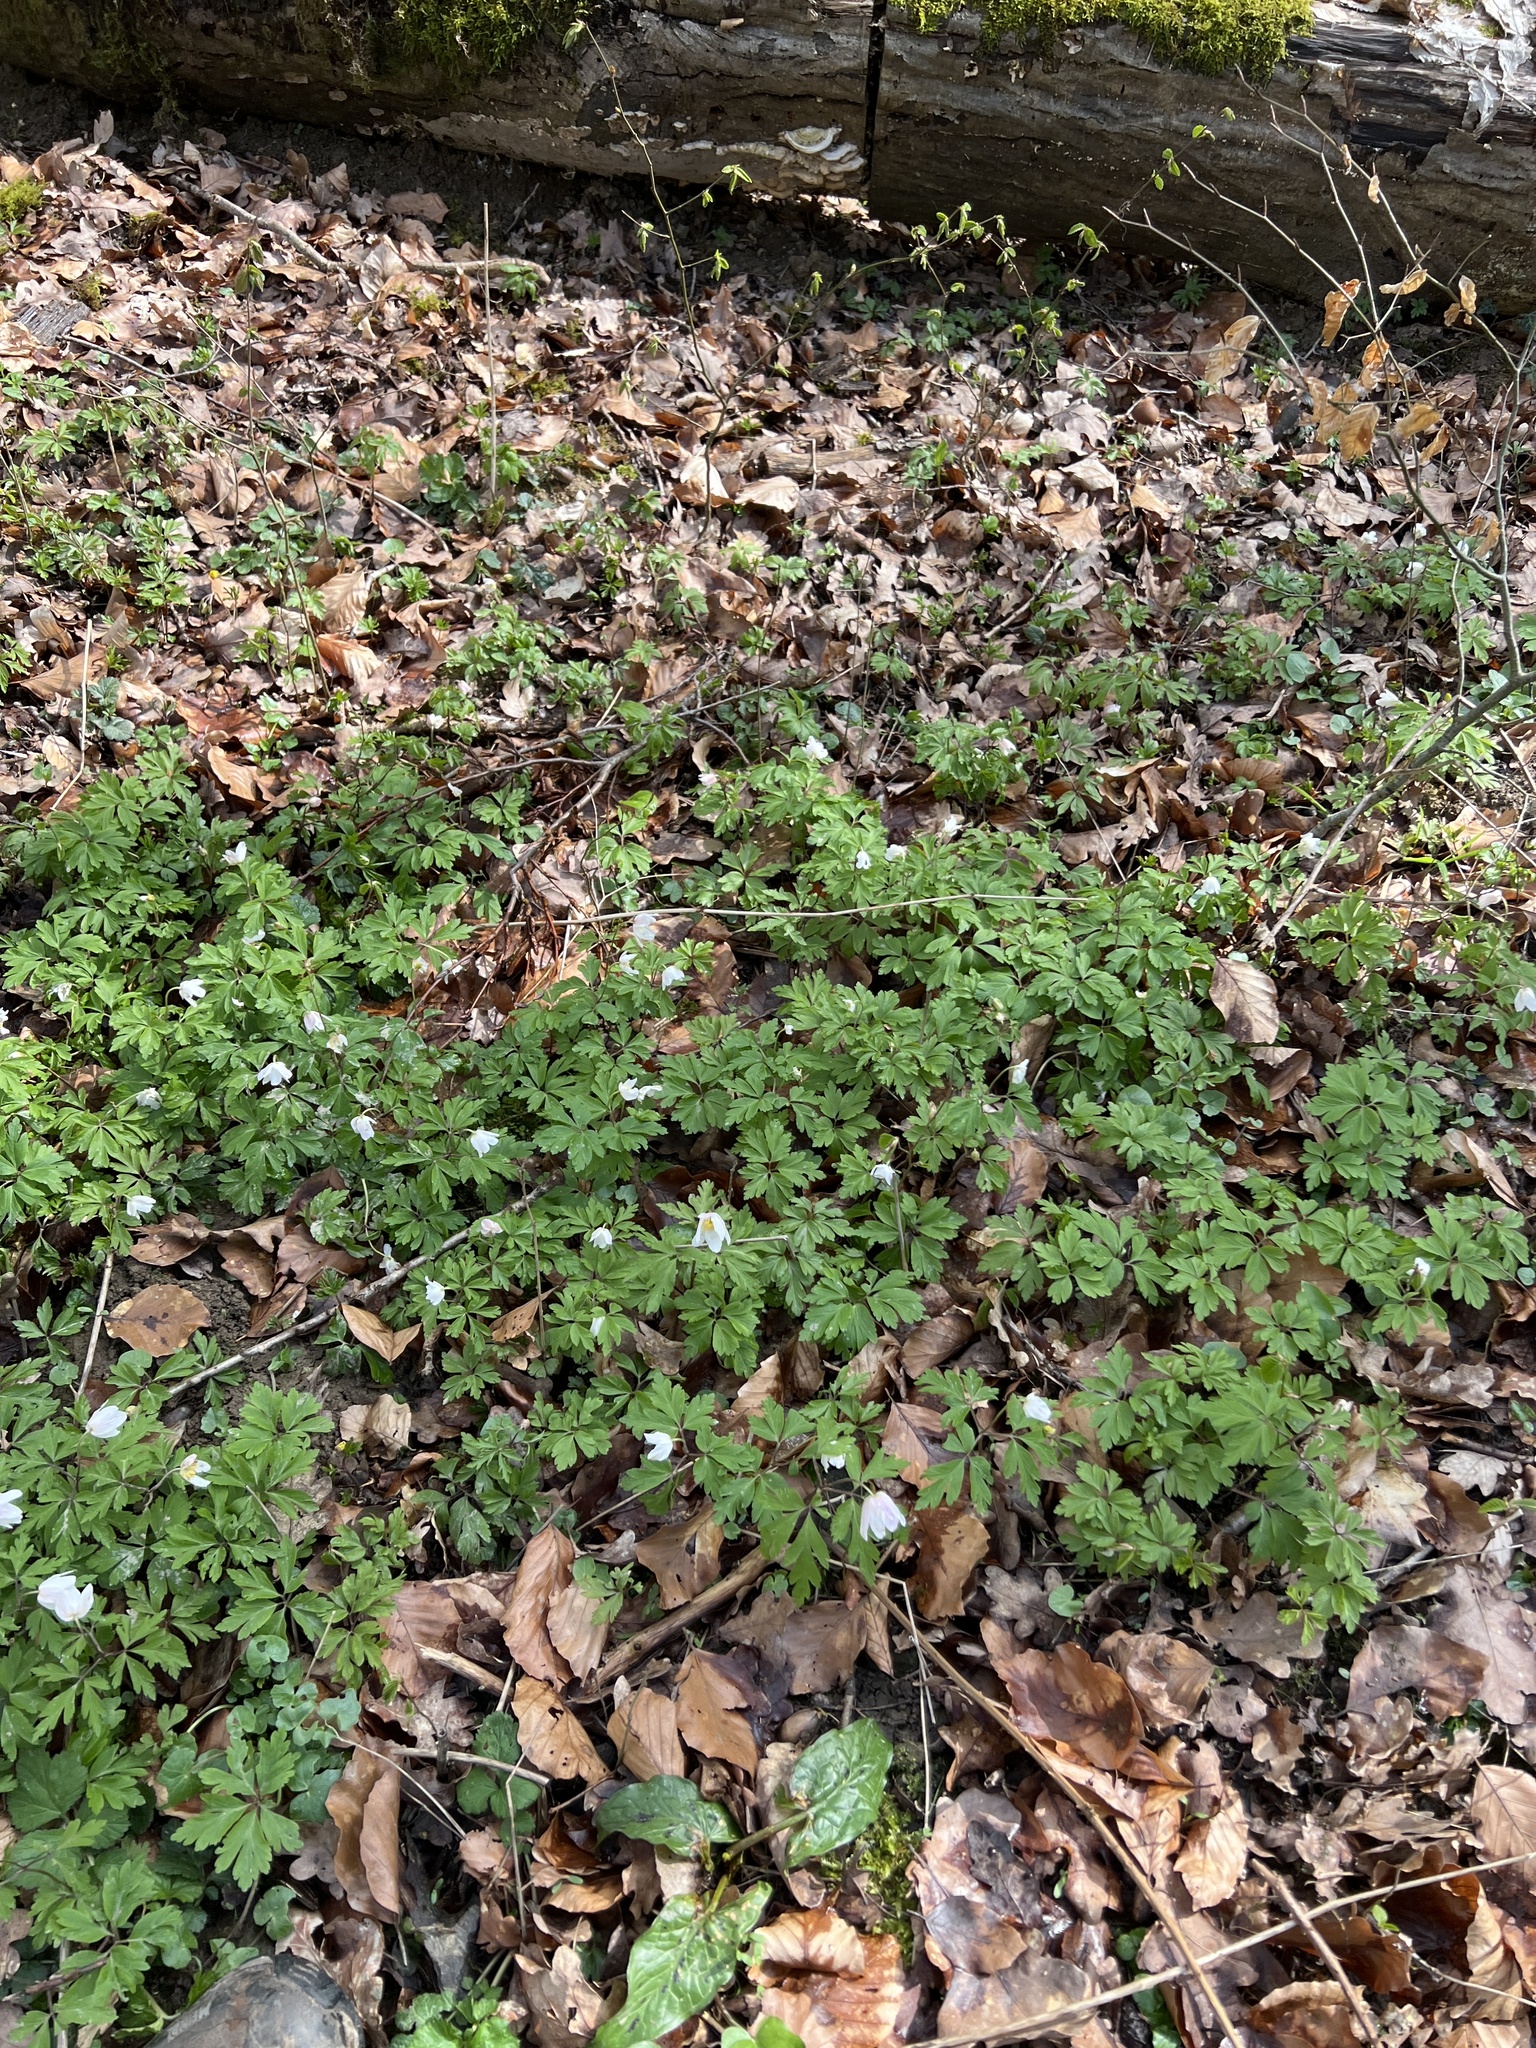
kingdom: Plantae
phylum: Tracheophyta
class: Magnoliopsida
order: Ranunculales
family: Ranunculaceae
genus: Anemone
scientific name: Anemone nemorosa
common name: Wood anemone
